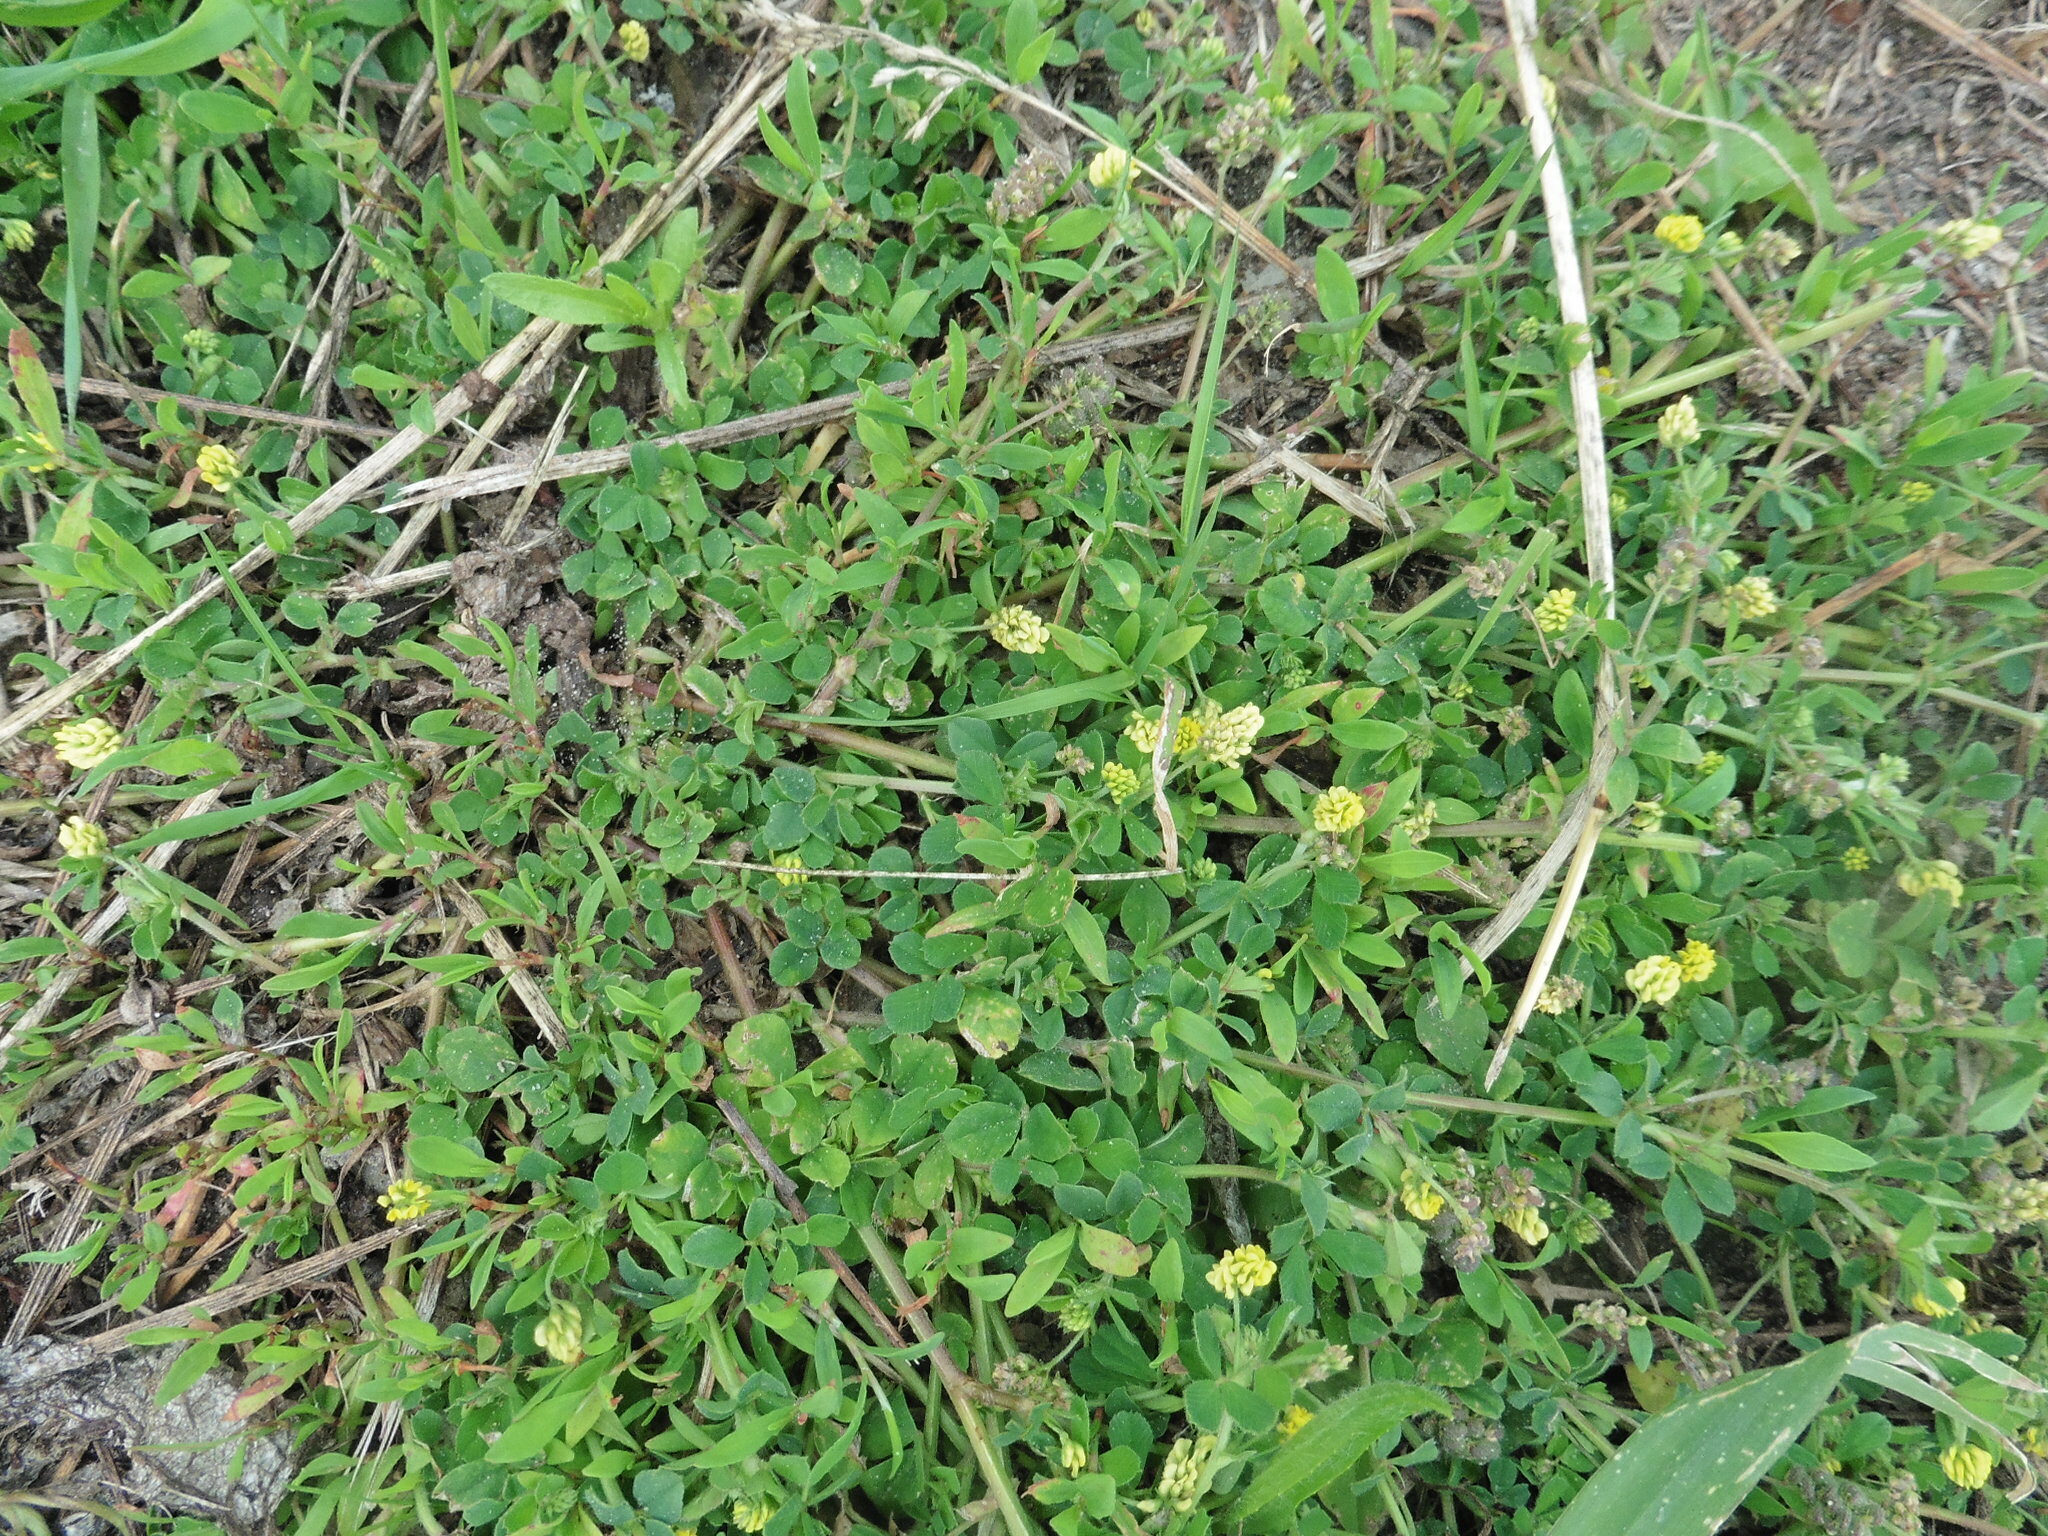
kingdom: Plantae
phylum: Tracheophyta
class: Magnoliopsida
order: Fabales
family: Fabaceae
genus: Medicago
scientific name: Medicago lupulina
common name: Black medick
